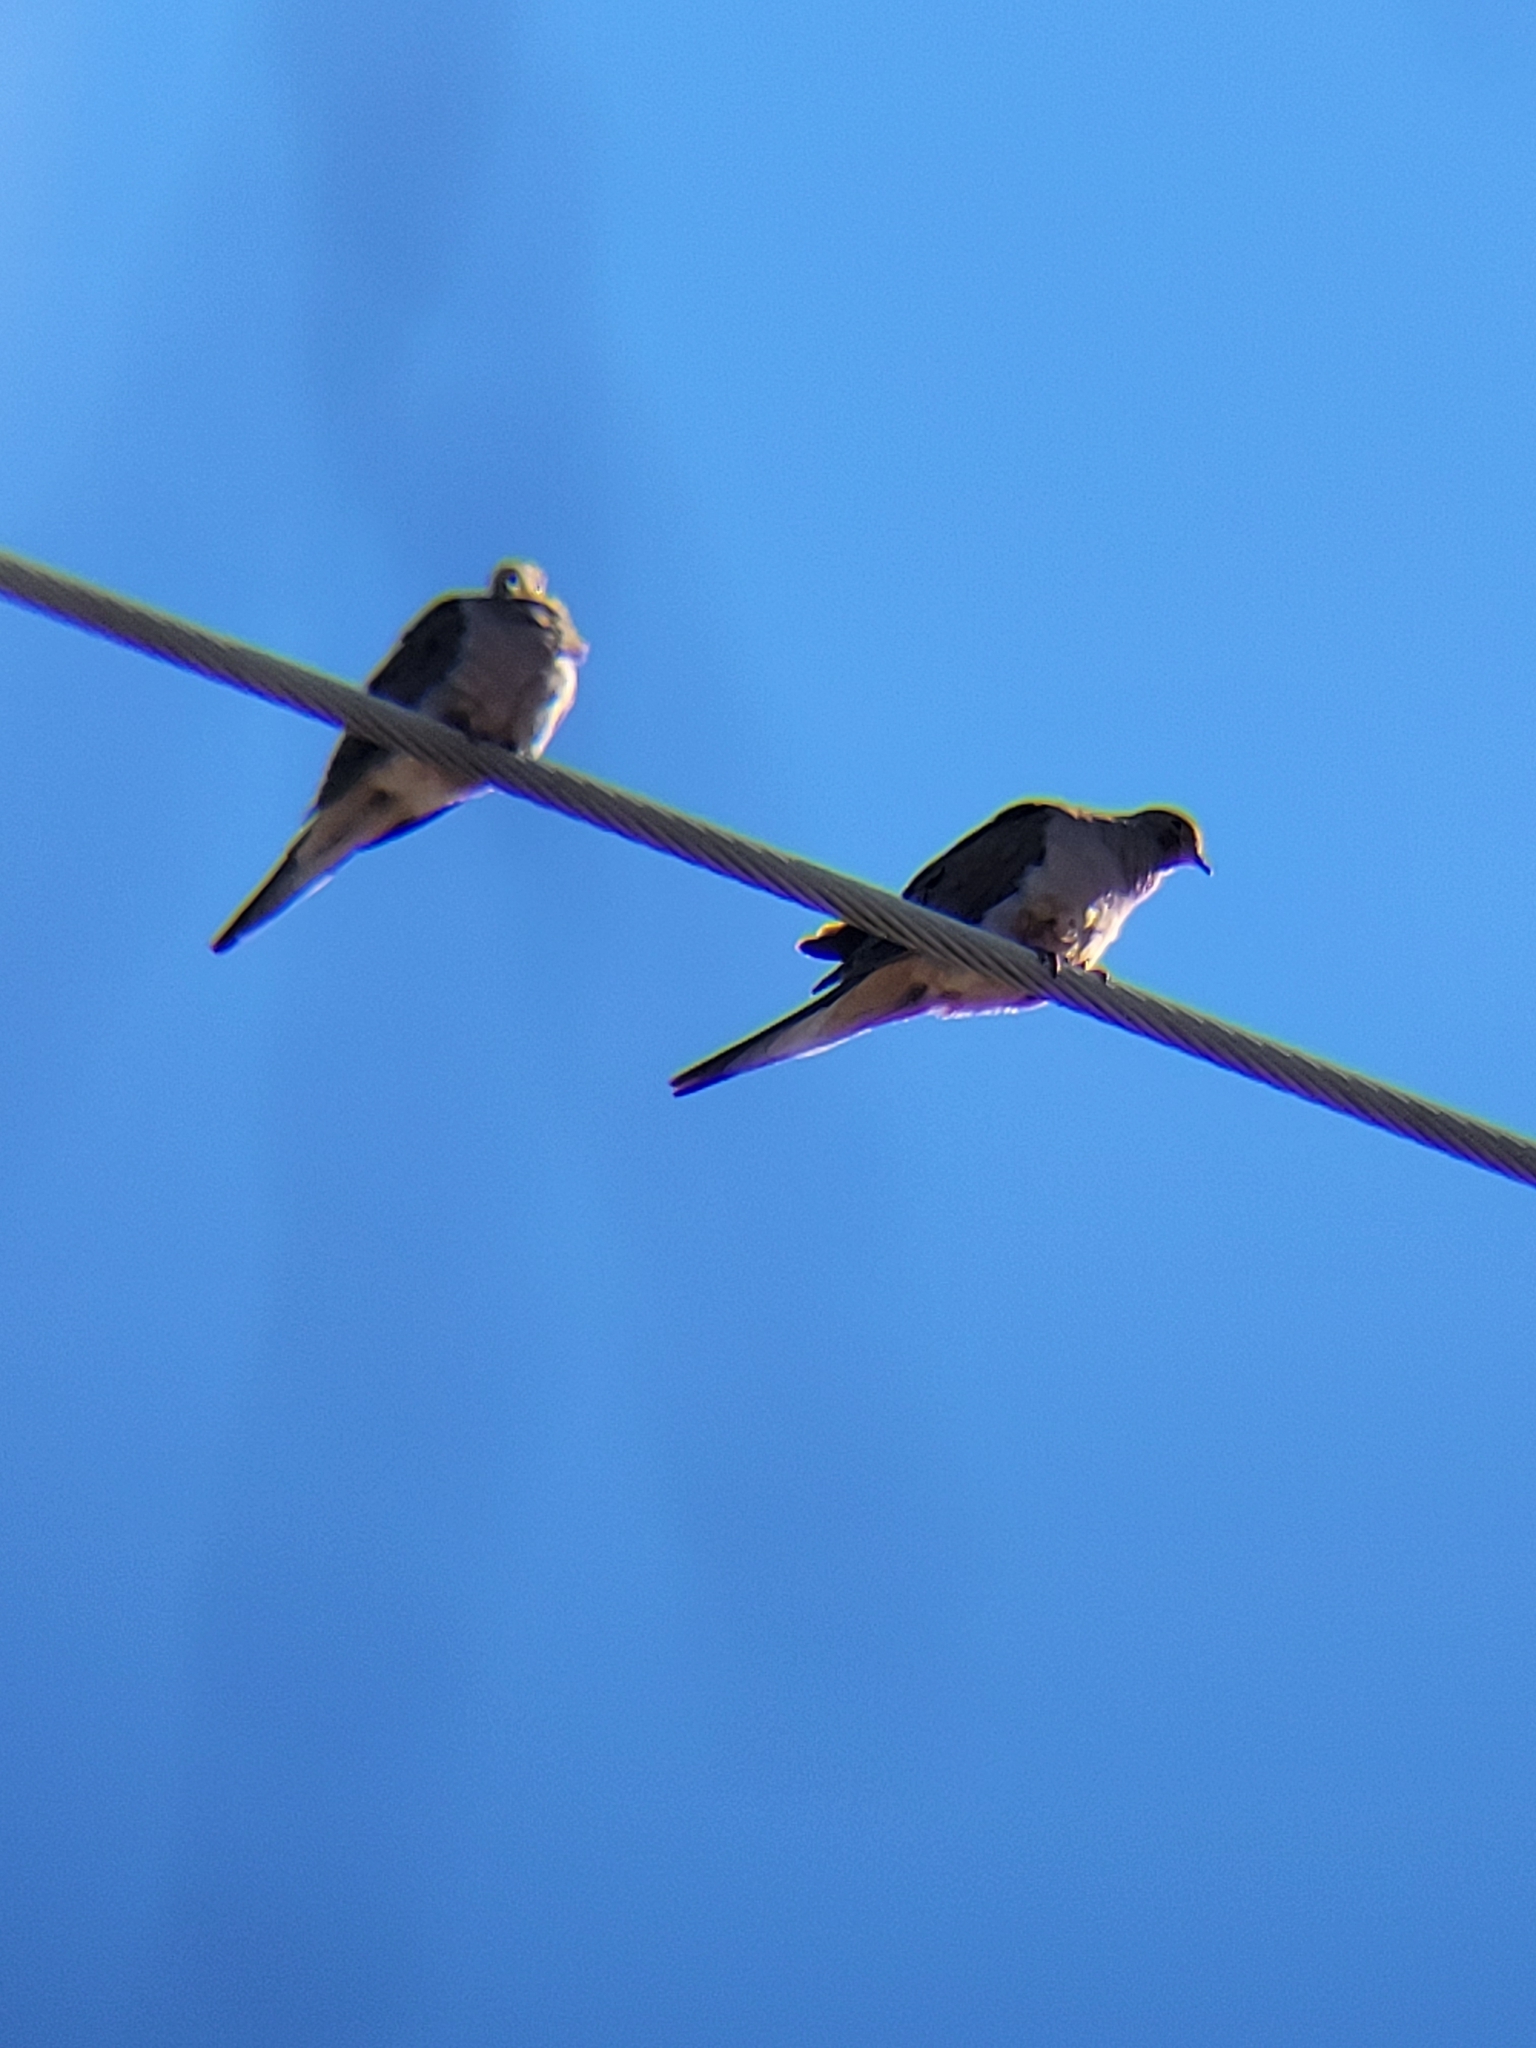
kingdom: Animalia
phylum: Chordata
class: Aves
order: Columbiformes
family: Columbidae
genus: Zenaida
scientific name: Zenaida macroura
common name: Mourning dove
